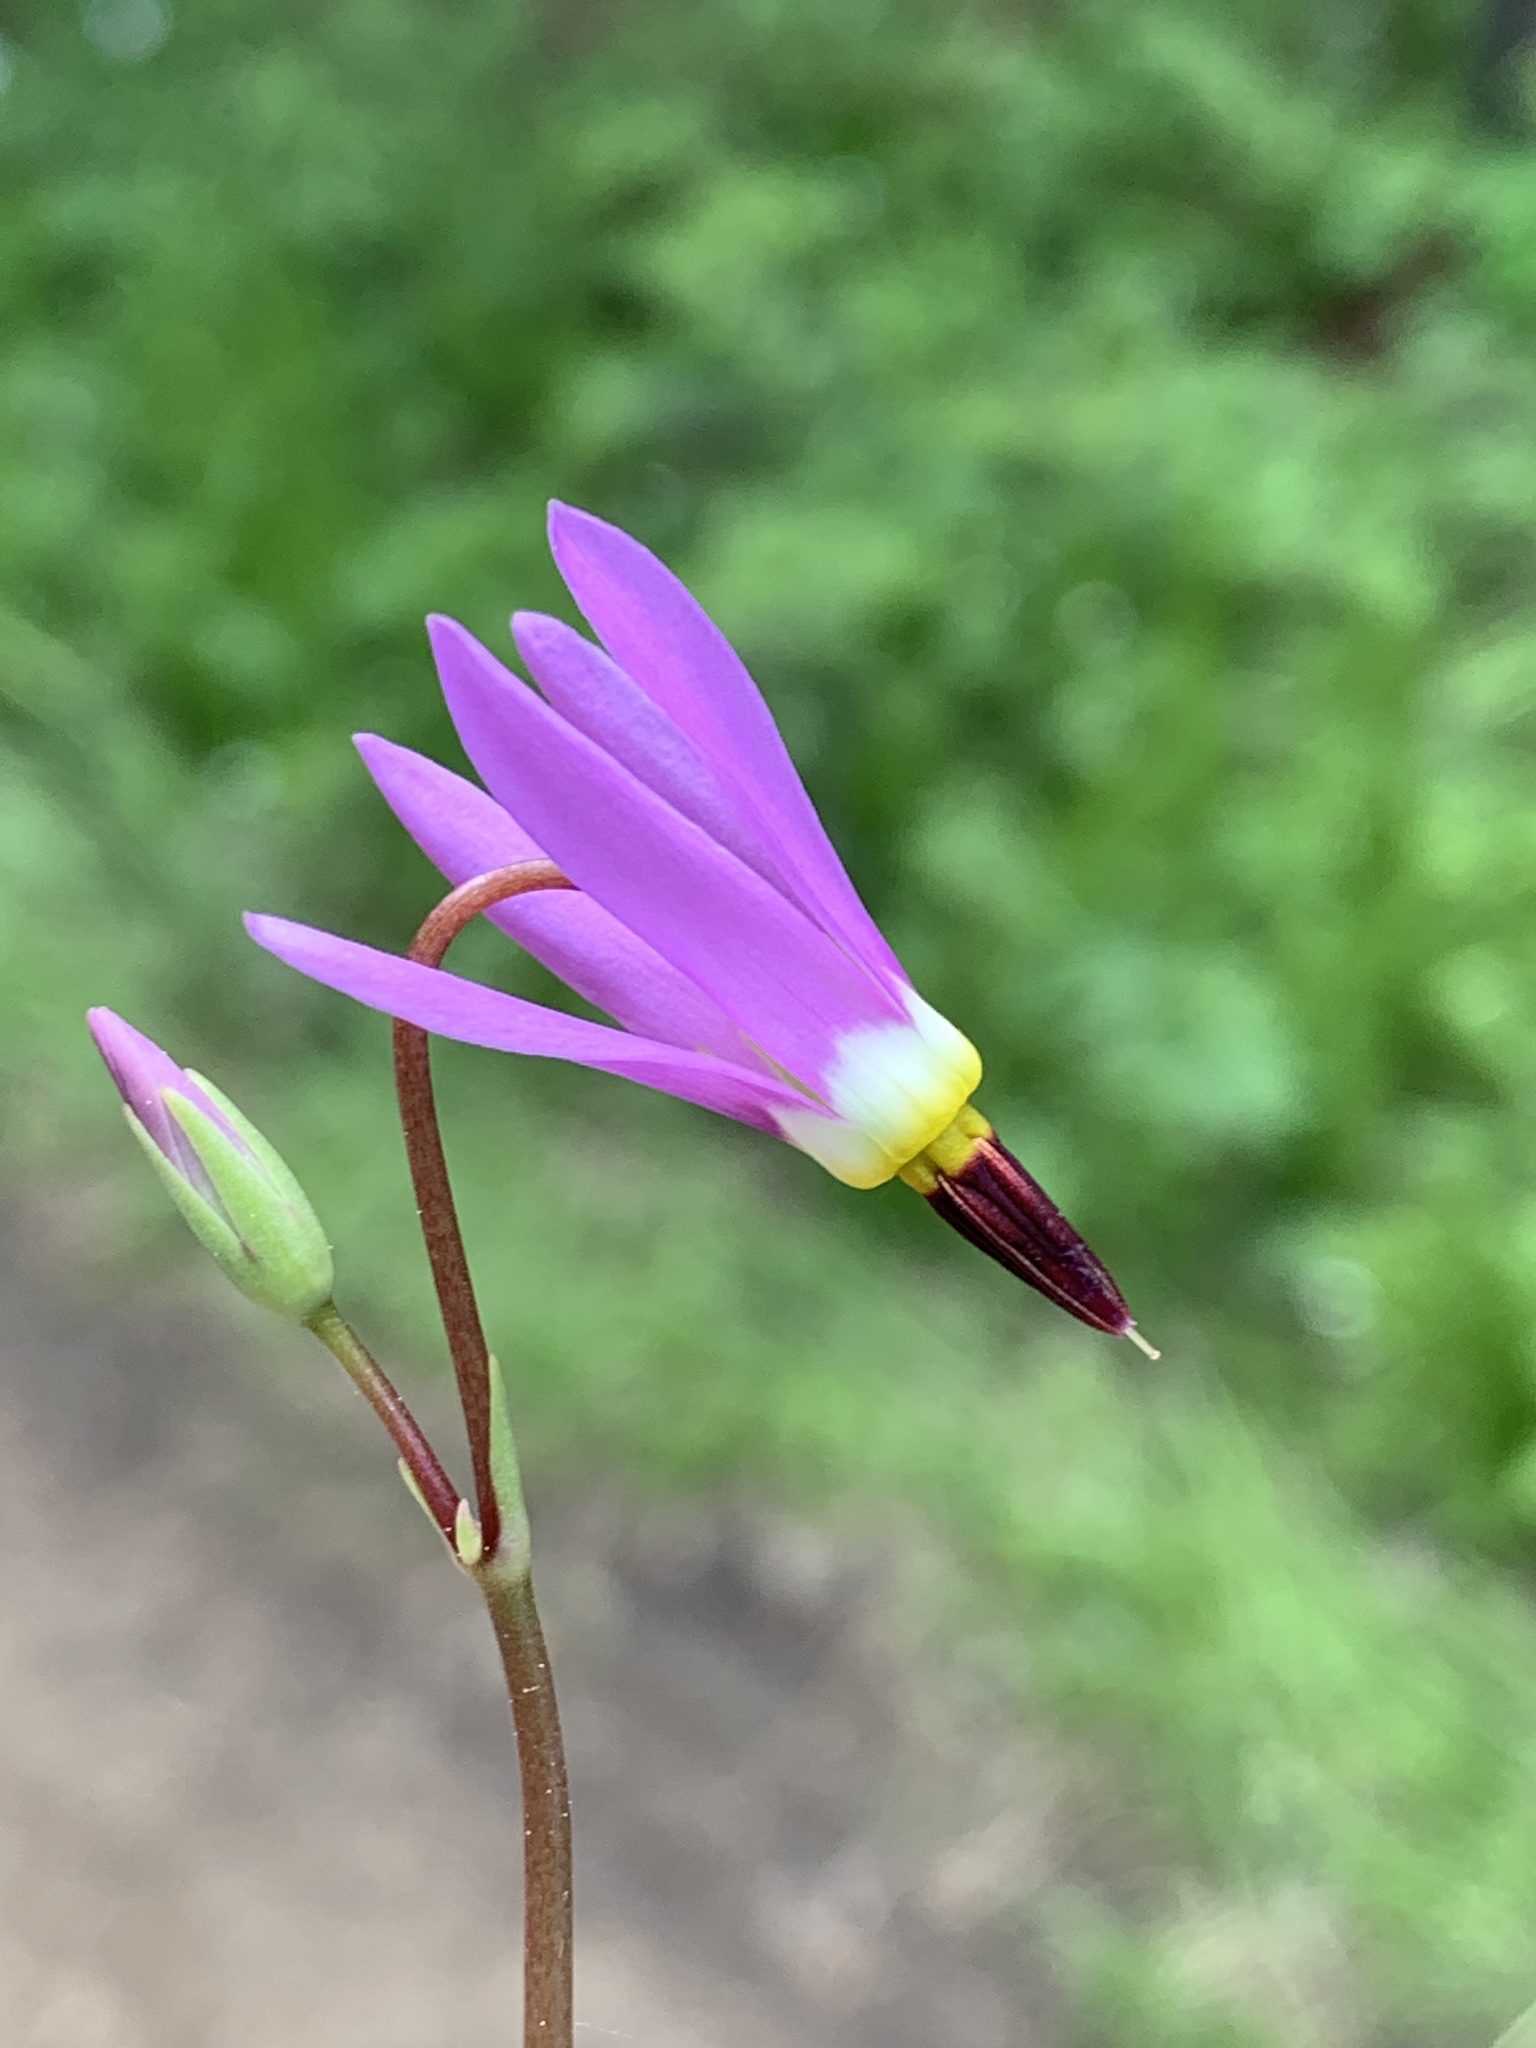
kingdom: Plantae
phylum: Tracheophyta
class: Magnoliopsida
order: Ericales
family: Primulaceae
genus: Dodecatheon
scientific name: Dodecatheon pulchellum
